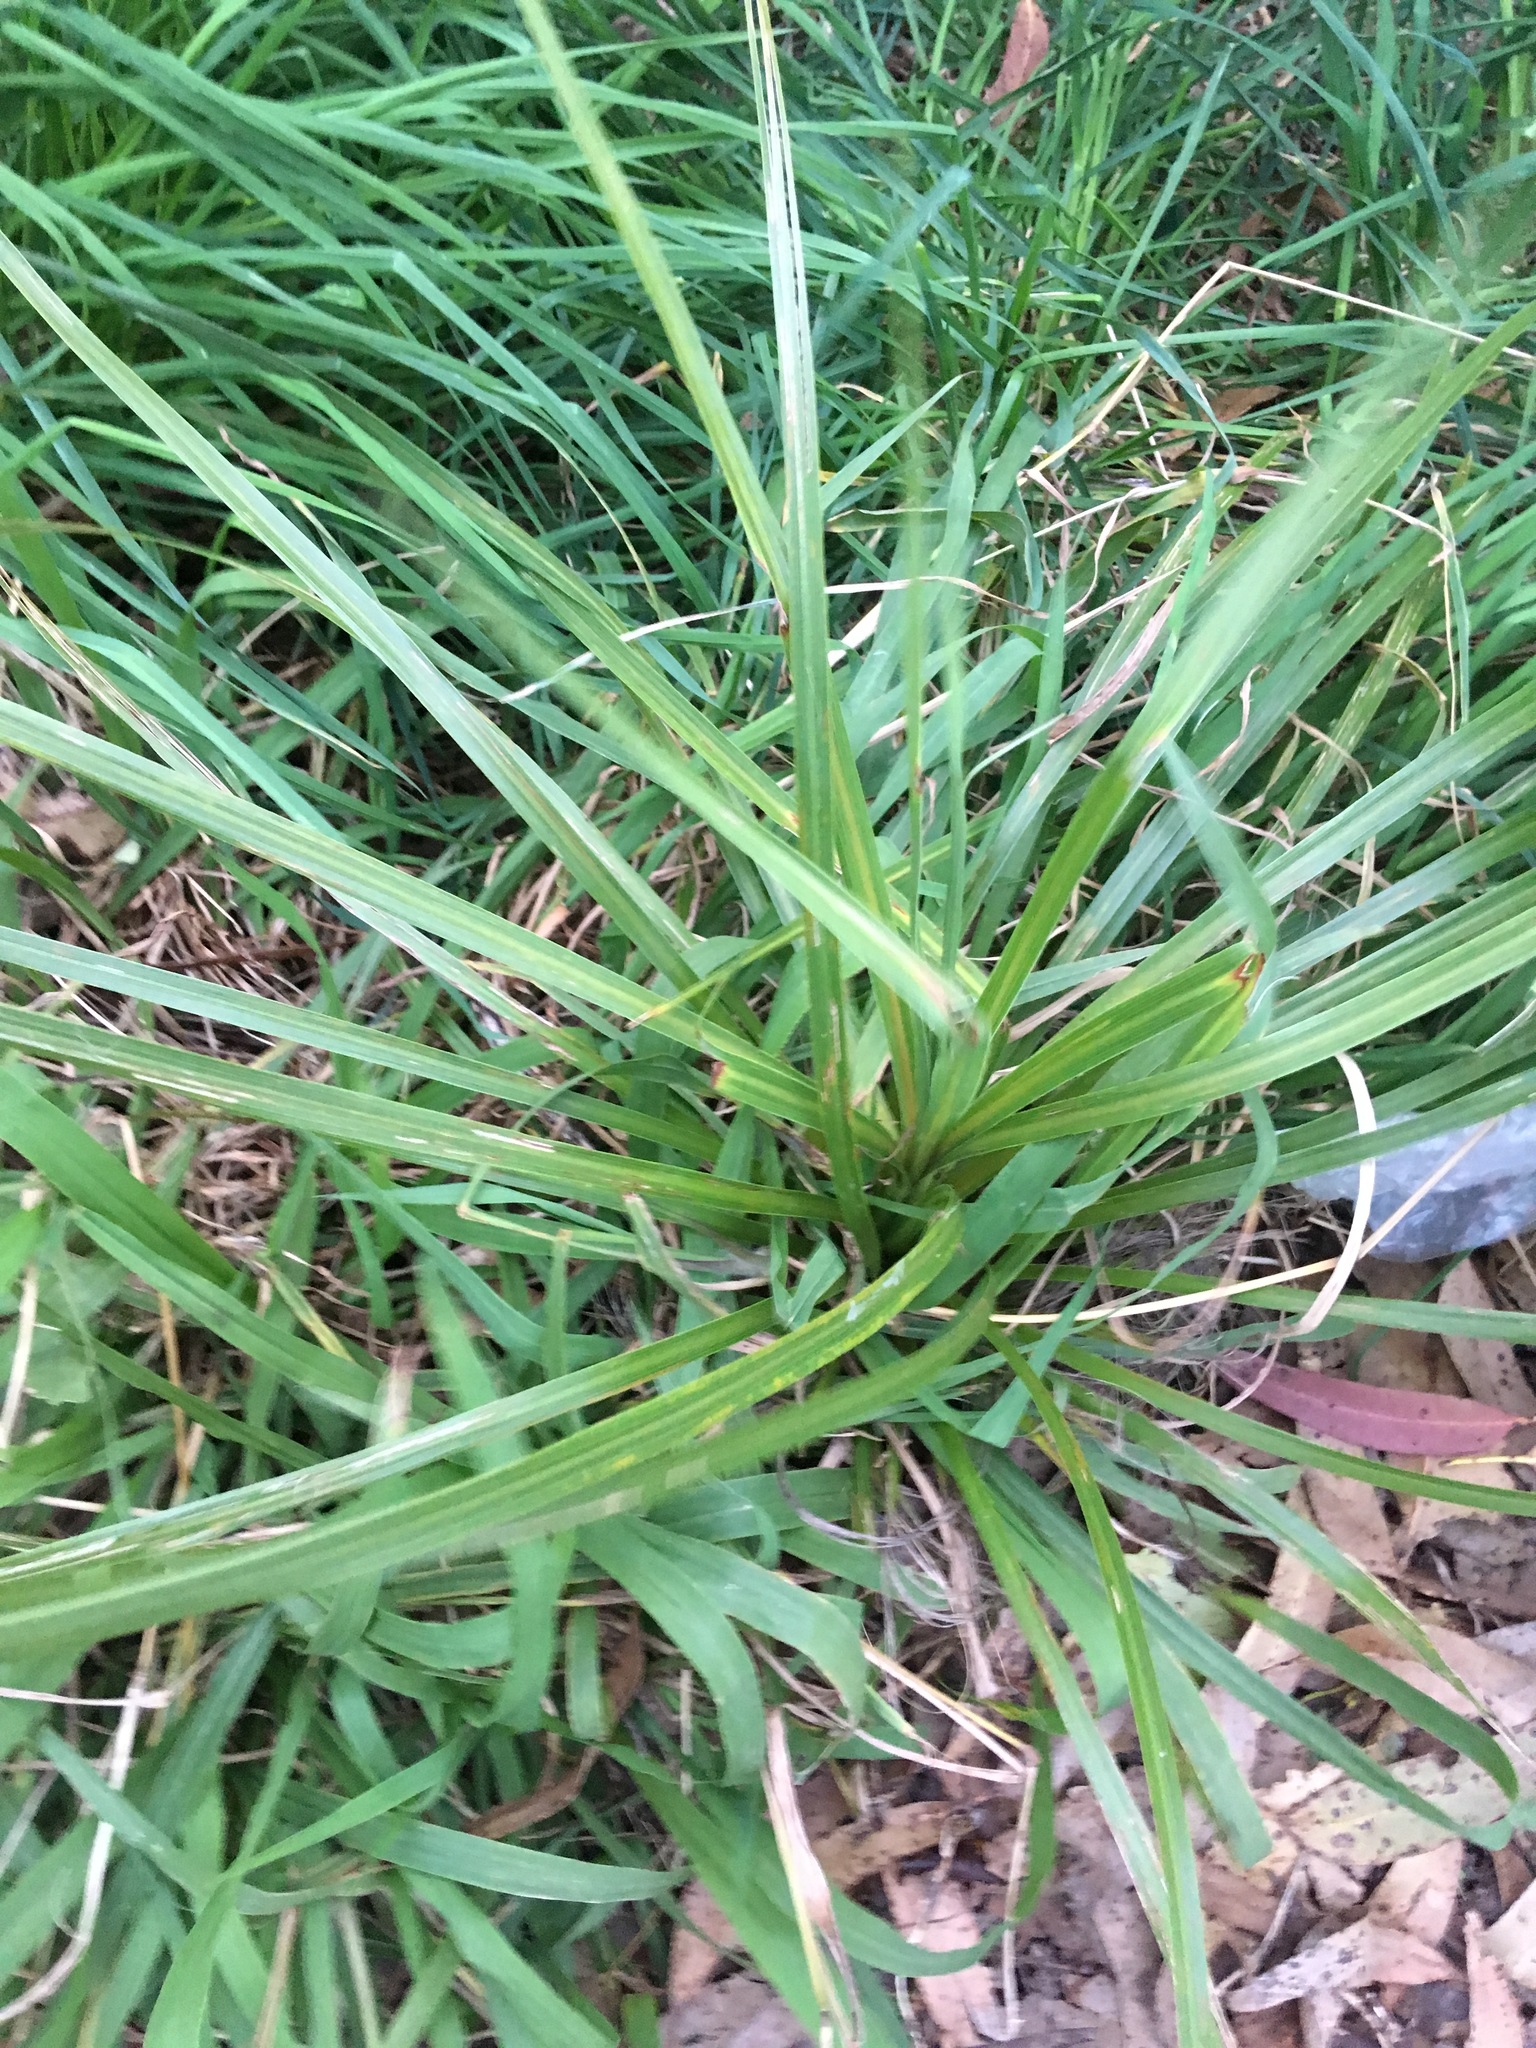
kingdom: Plantae
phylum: Tracheophyta
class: Liliopsida
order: Asparagales
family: Asparagaceae
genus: Cordyline
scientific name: Cordyline australis
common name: Cabbage-palm
